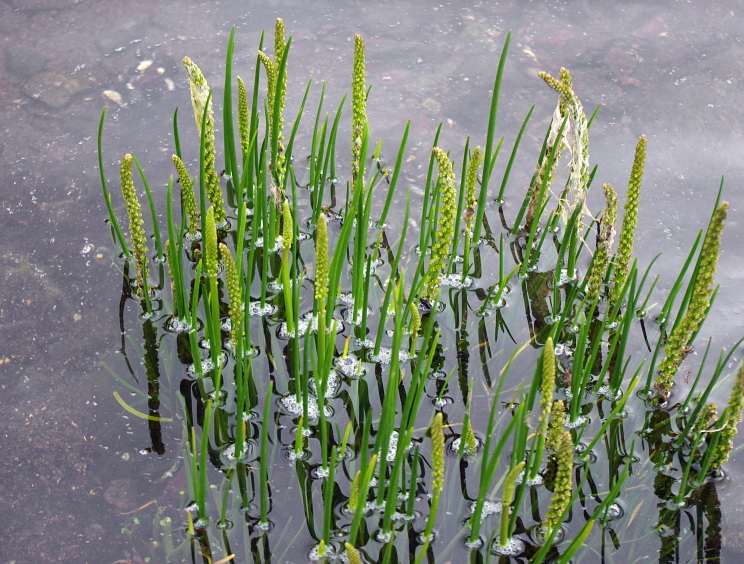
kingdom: Plantae
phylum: Tracheophyta
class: Liliopsida
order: Alismatales
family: Juncaginaceae
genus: Triglochin
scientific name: Triglochin maritima
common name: Sea arrowgrass
